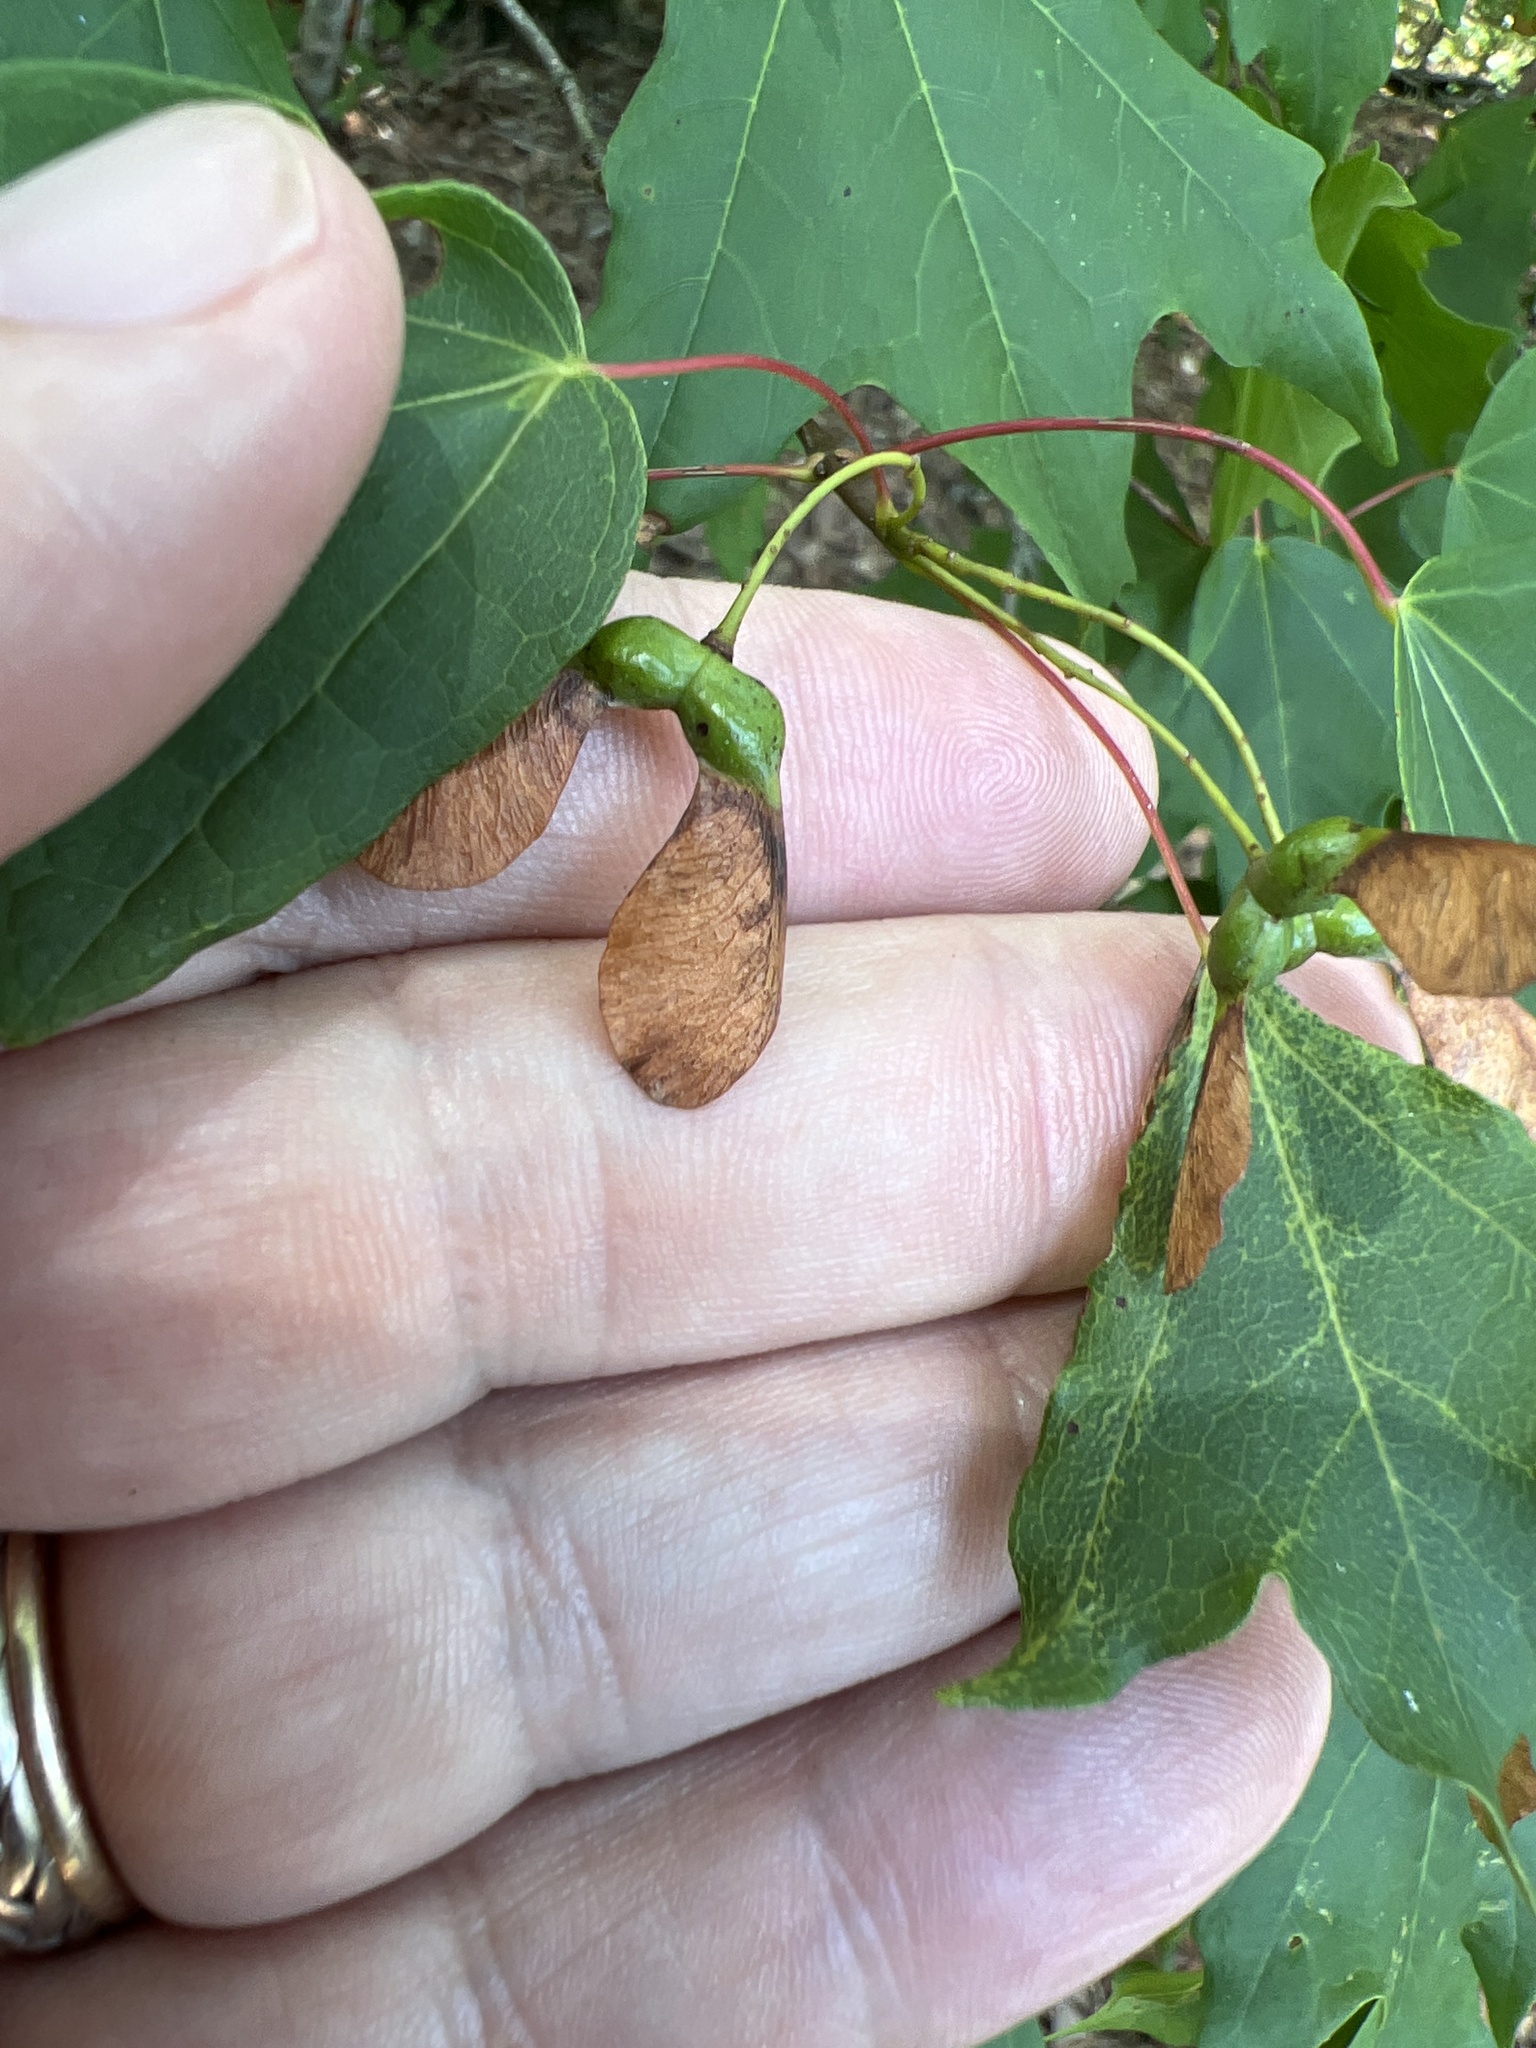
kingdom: Plantae
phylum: Tracheophyta
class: Magnoliopsida
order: Sapindales
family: Sapindaceae
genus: Acer
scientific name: Acer leucoderme
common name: Chalk maple
